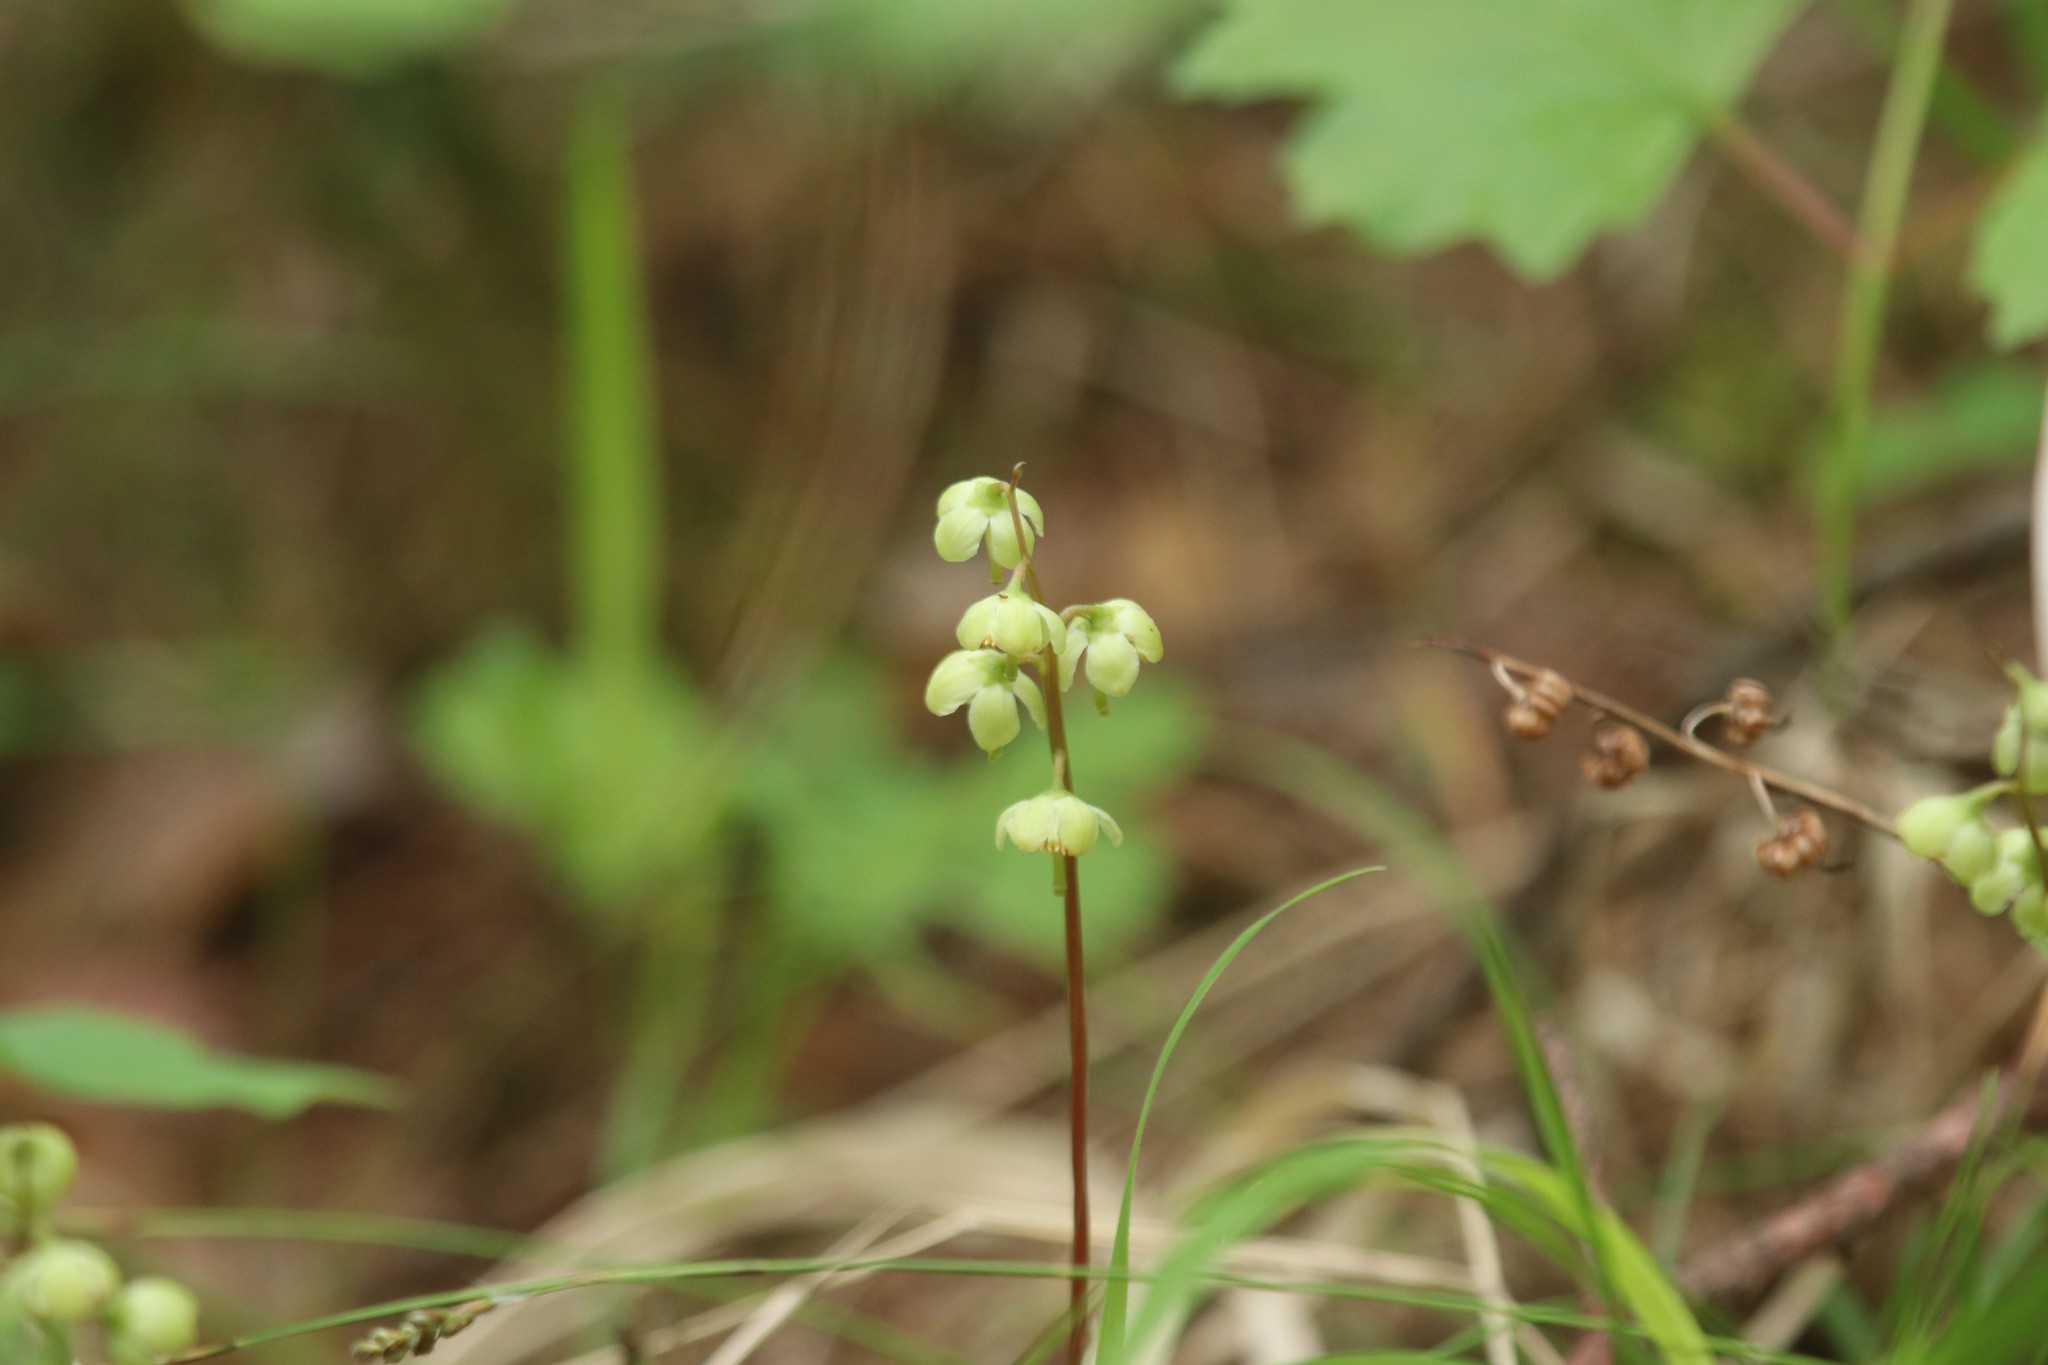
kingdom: Plantae
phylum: Tracheophyta
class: Magnoliopsida
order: Ericales
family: Ericaceae
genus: Pyrola
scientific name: Pyrola chlorantha
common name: Green wintergreen
